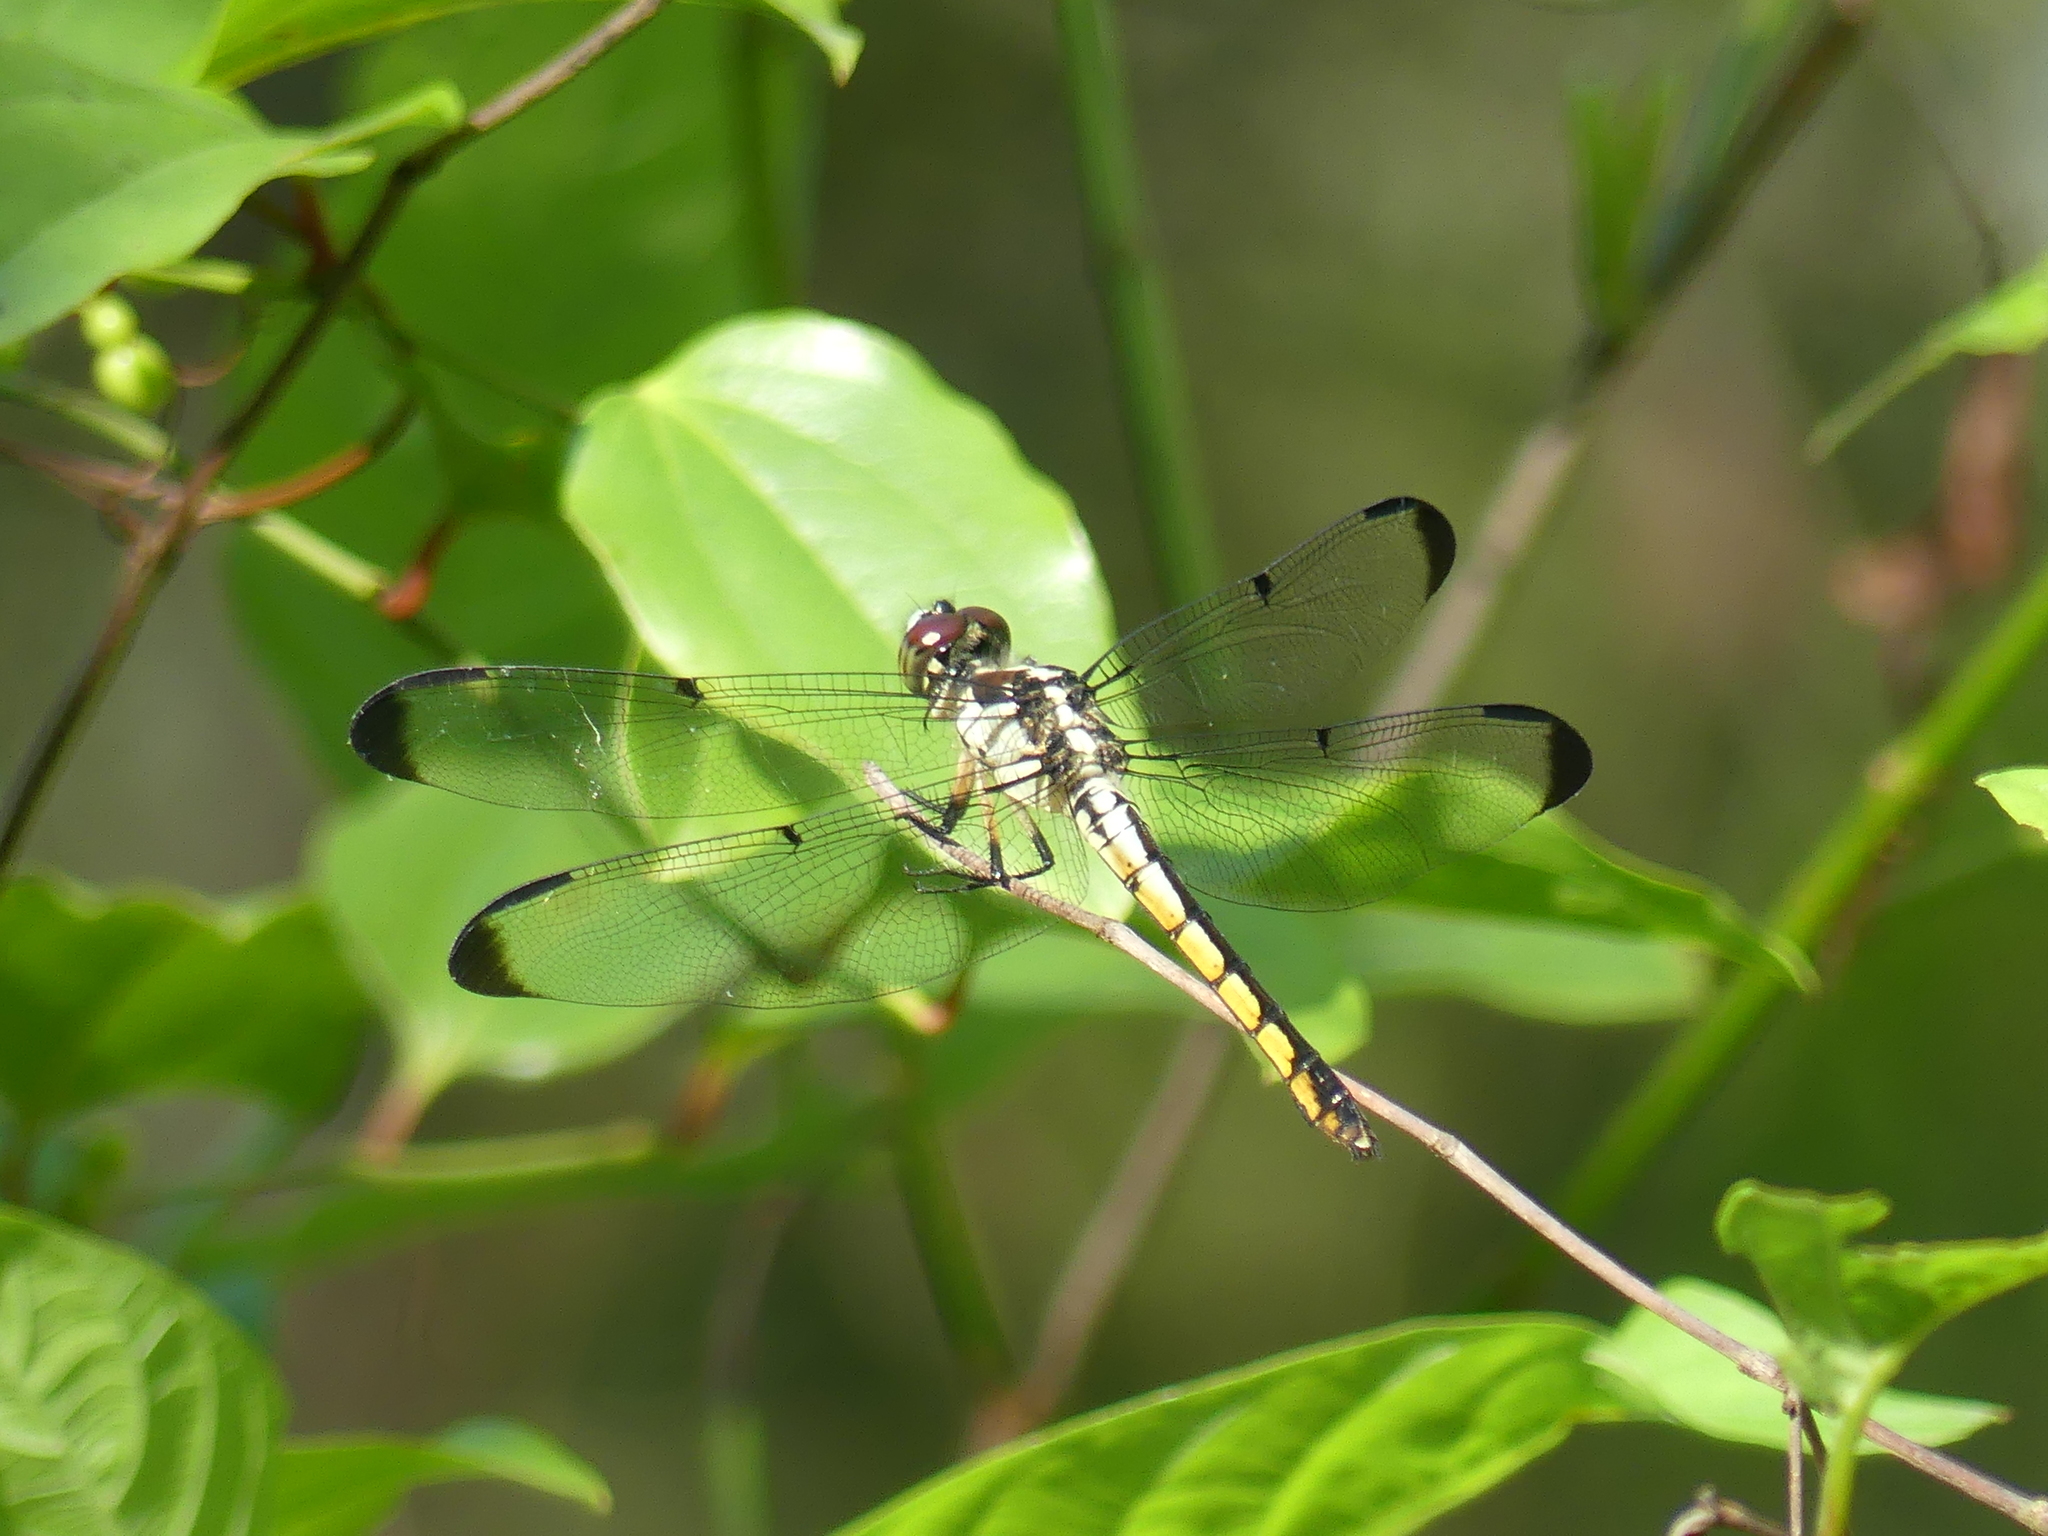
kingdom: Animalia
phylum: Arthropoda
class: Insecta
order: Odonata
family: Libellulidae
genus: Libellula
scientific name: Libellula vibrans
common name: Great blue skimmer
